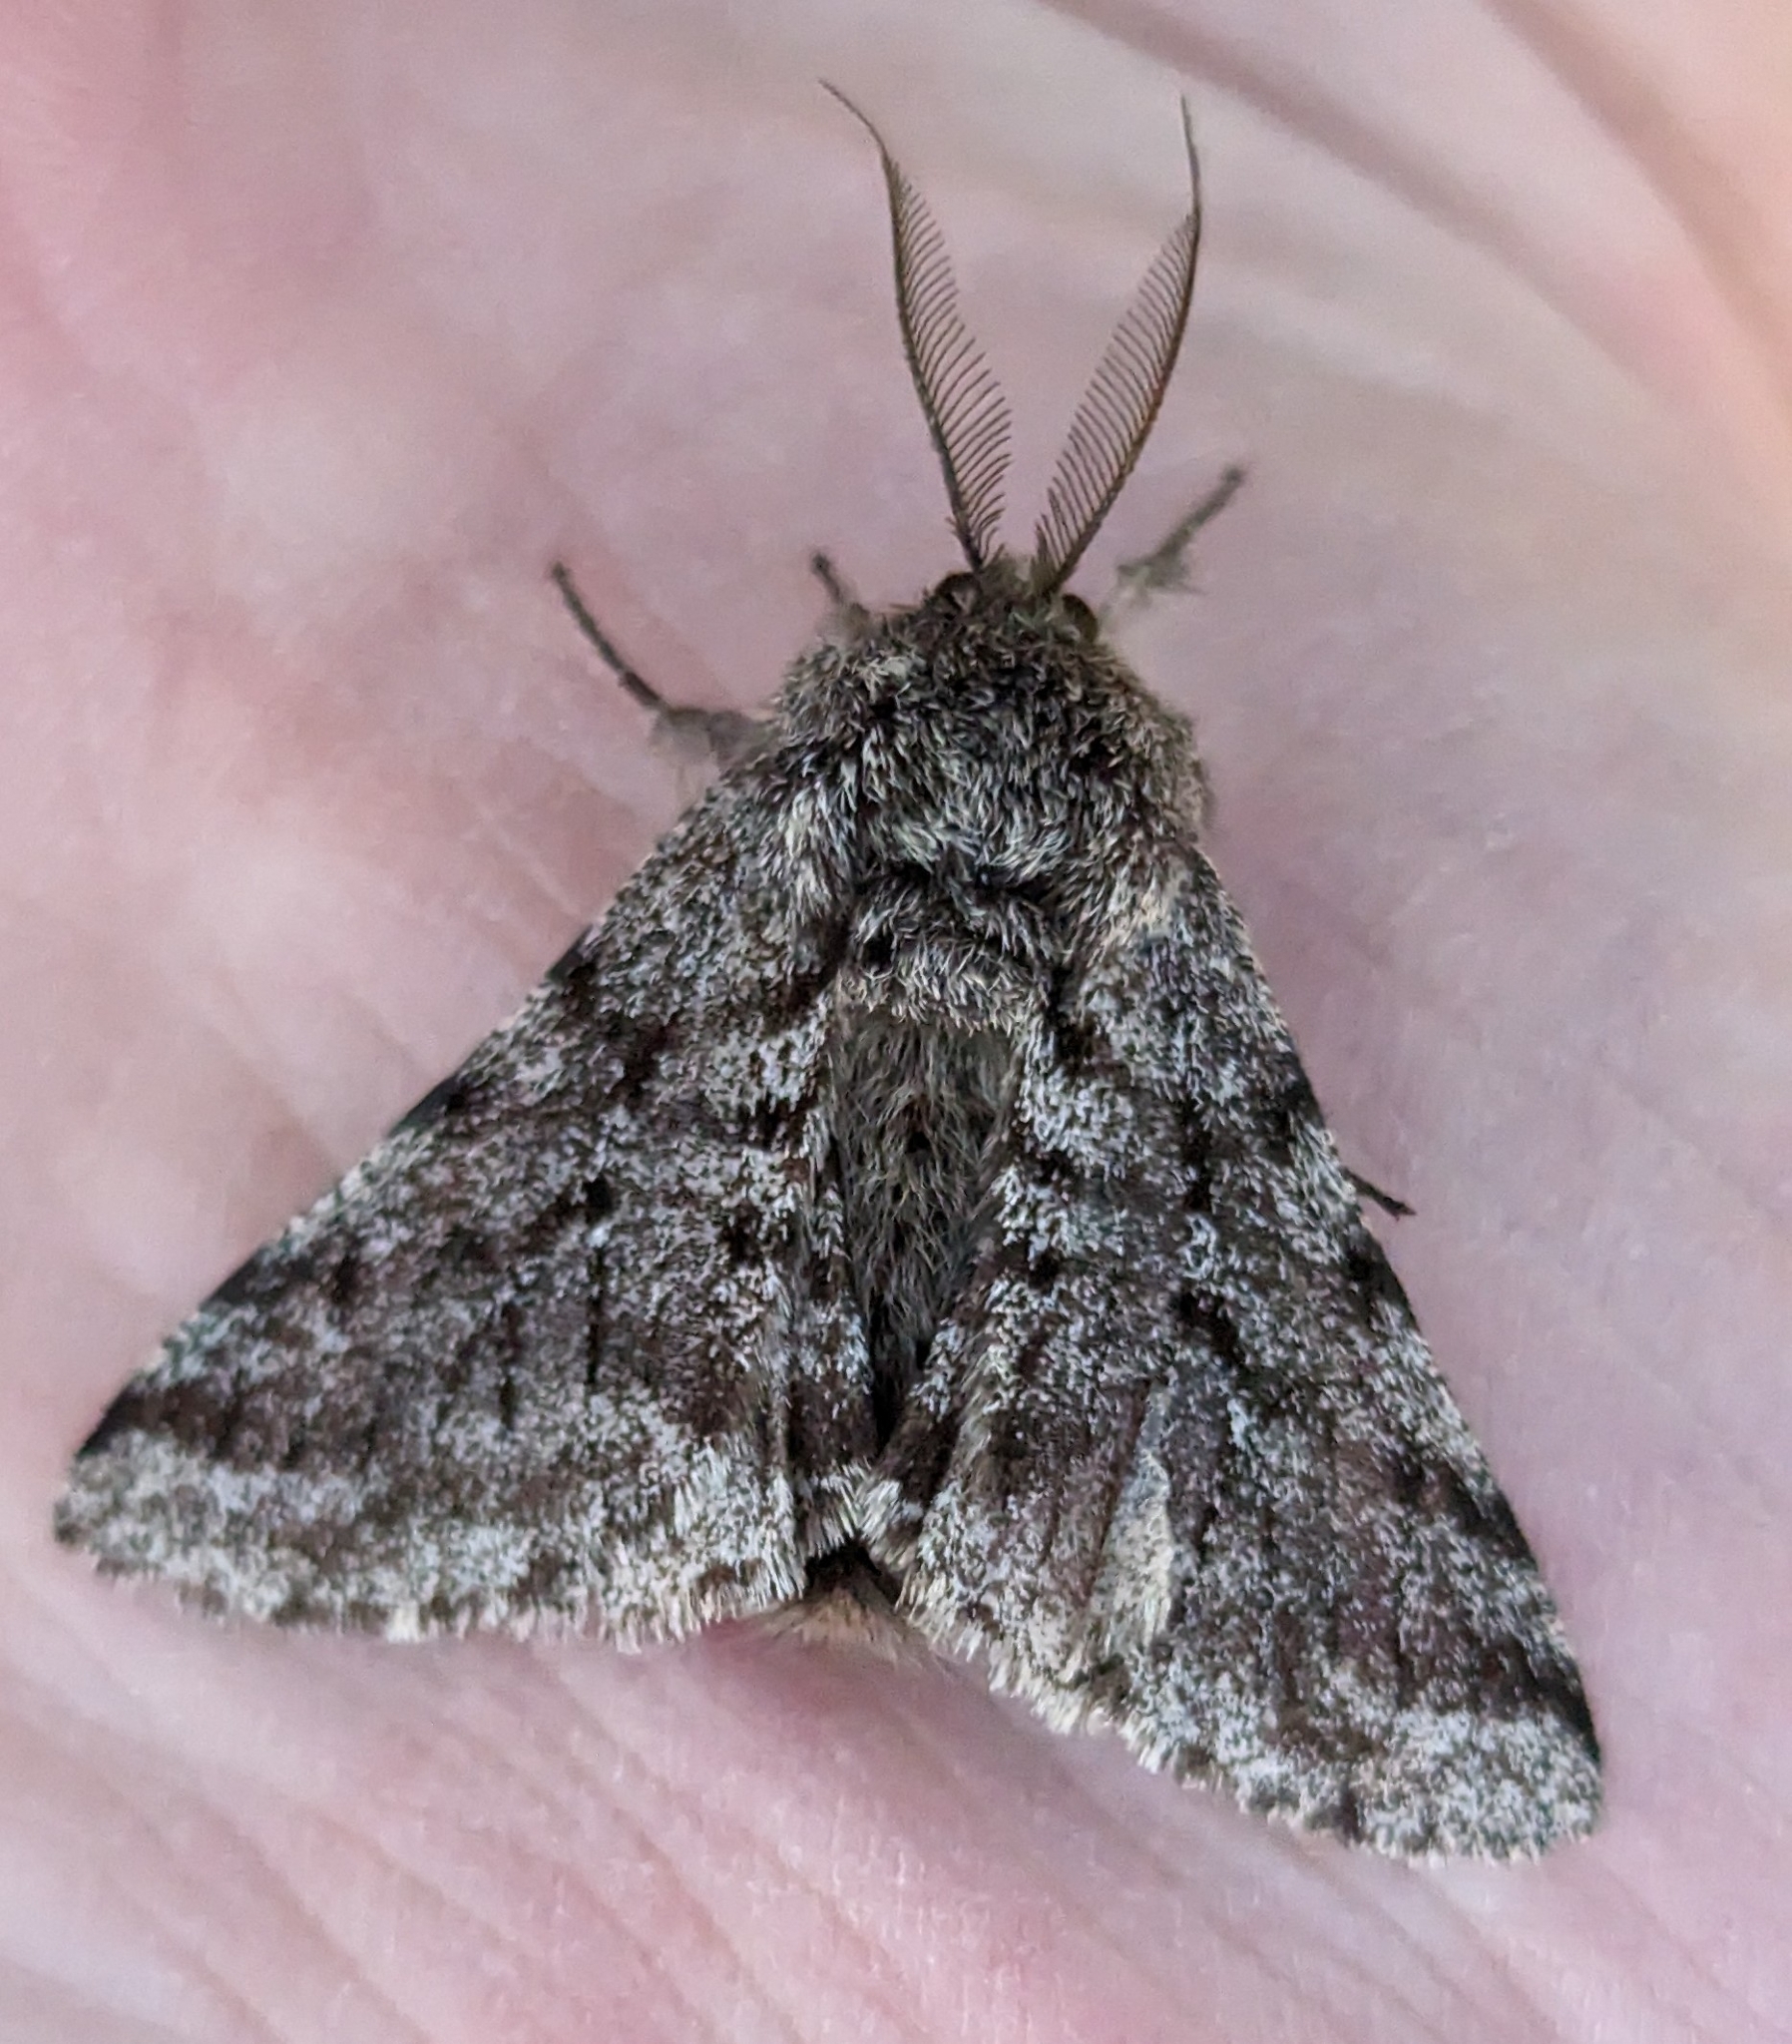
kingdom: Animalia
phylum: Arthropoda
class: Insecta
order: Lepidoptera
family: Geometridae
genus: Lycia
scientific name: Lycia ursaria
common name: Stout spanworm
